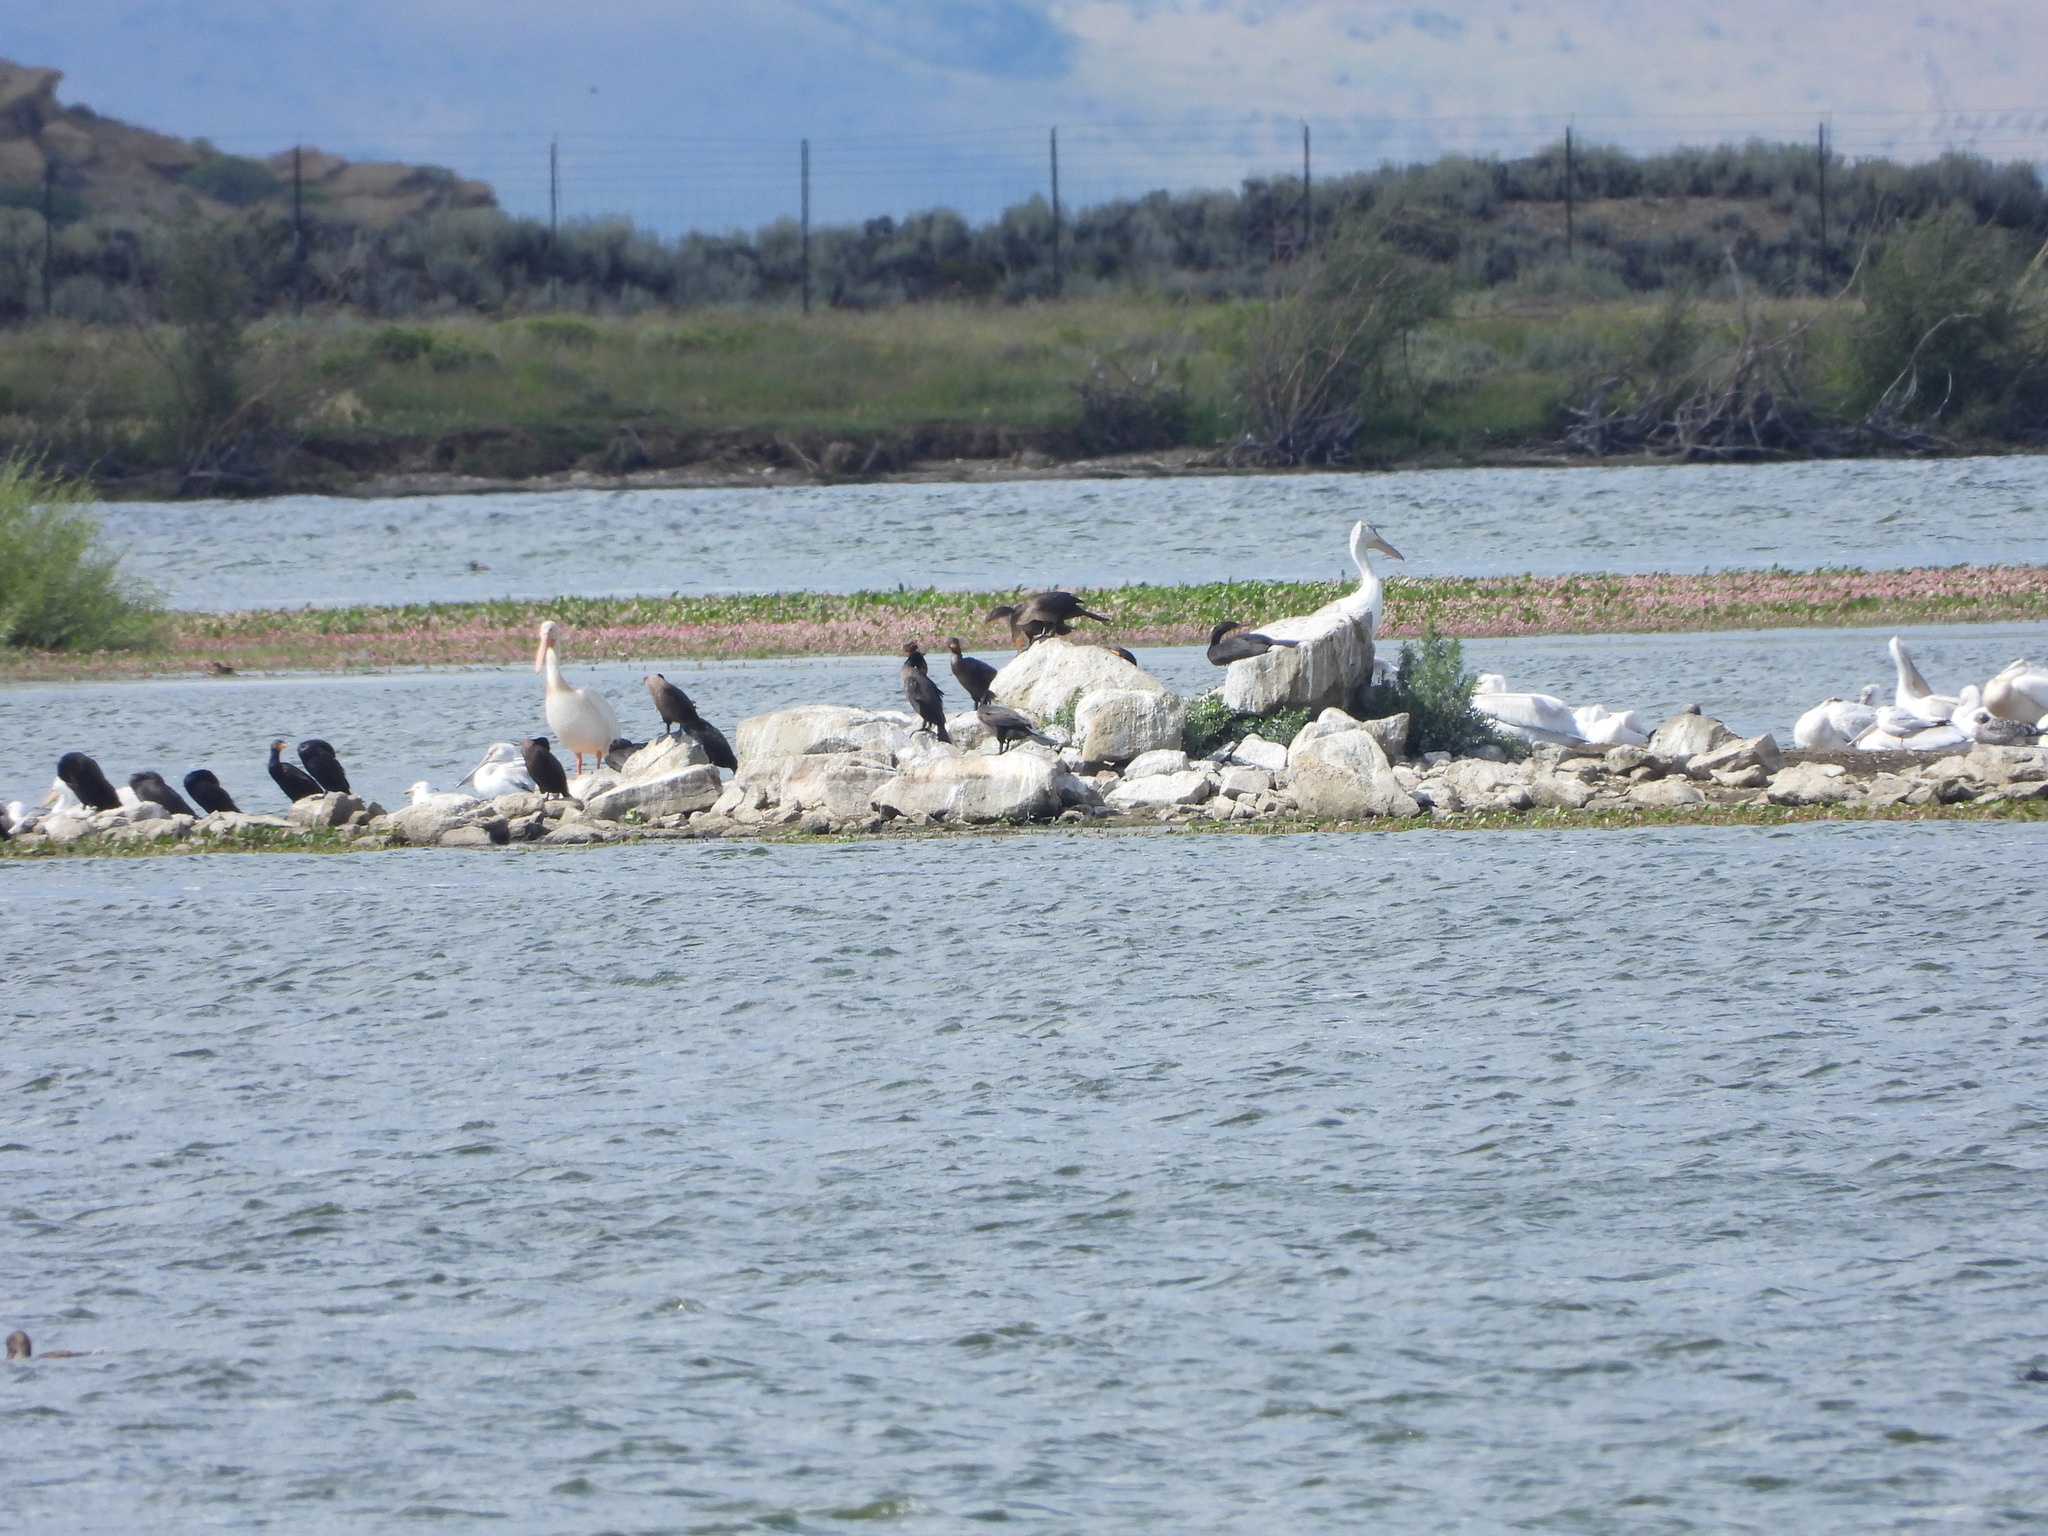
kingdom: Animalia
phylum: Chordata
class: Aves
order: Suliformes
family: Phalacrocoracidae
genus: Phalacrocorax
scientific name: Phalacrocorax auritus
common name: Double-crested cormorant
